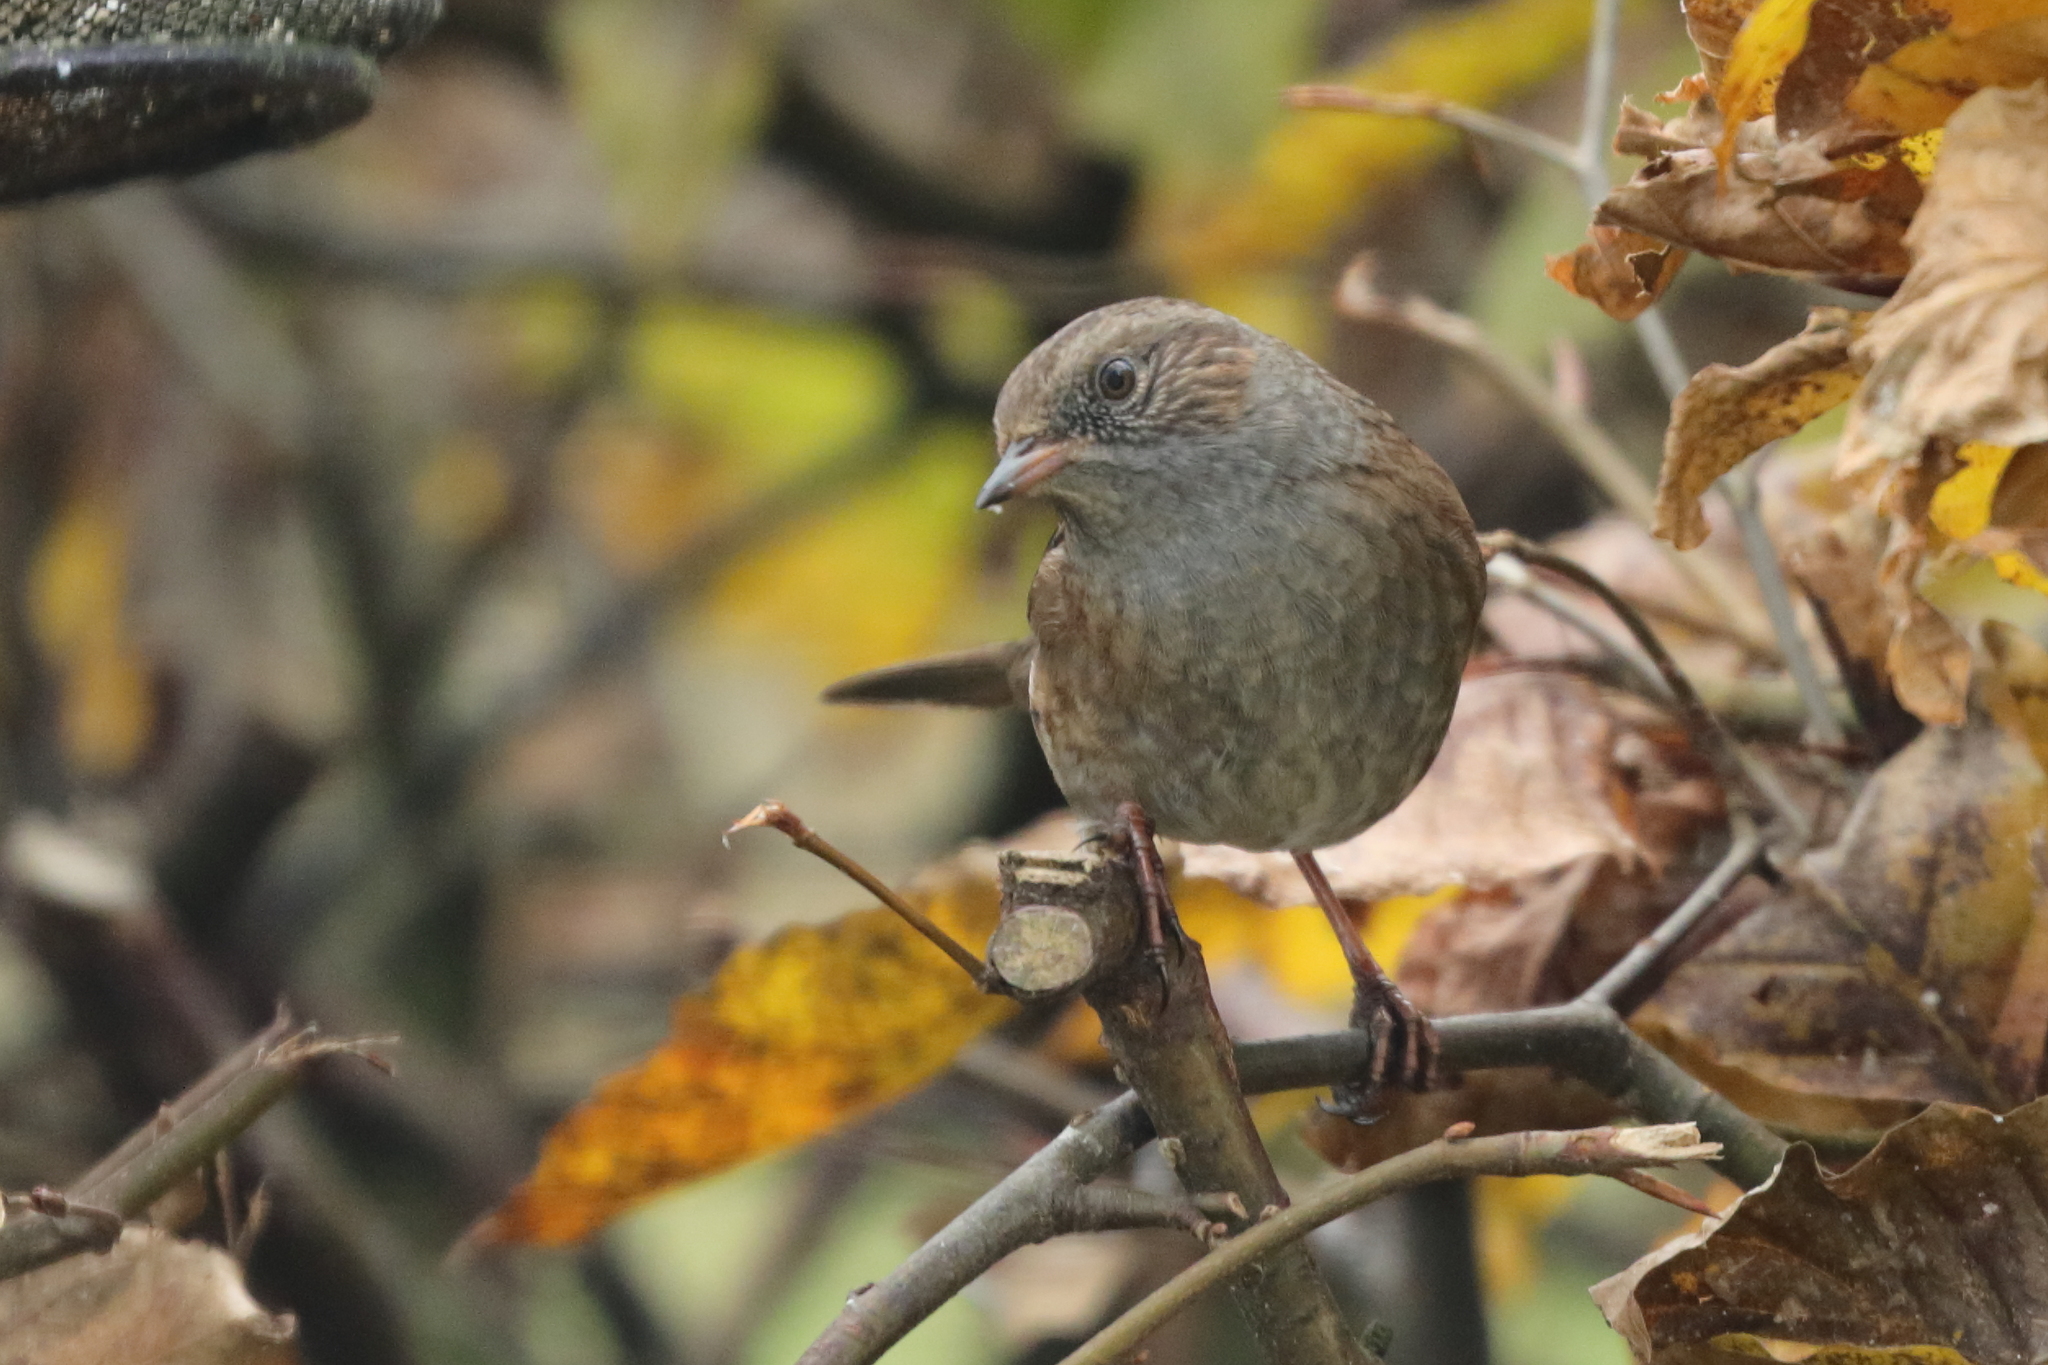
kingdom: Animalia
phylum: Chordata
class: Aves
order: Passeriformes
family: Prunellidae
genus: Prunella
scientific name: Prunella modularis
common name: Dunnock
